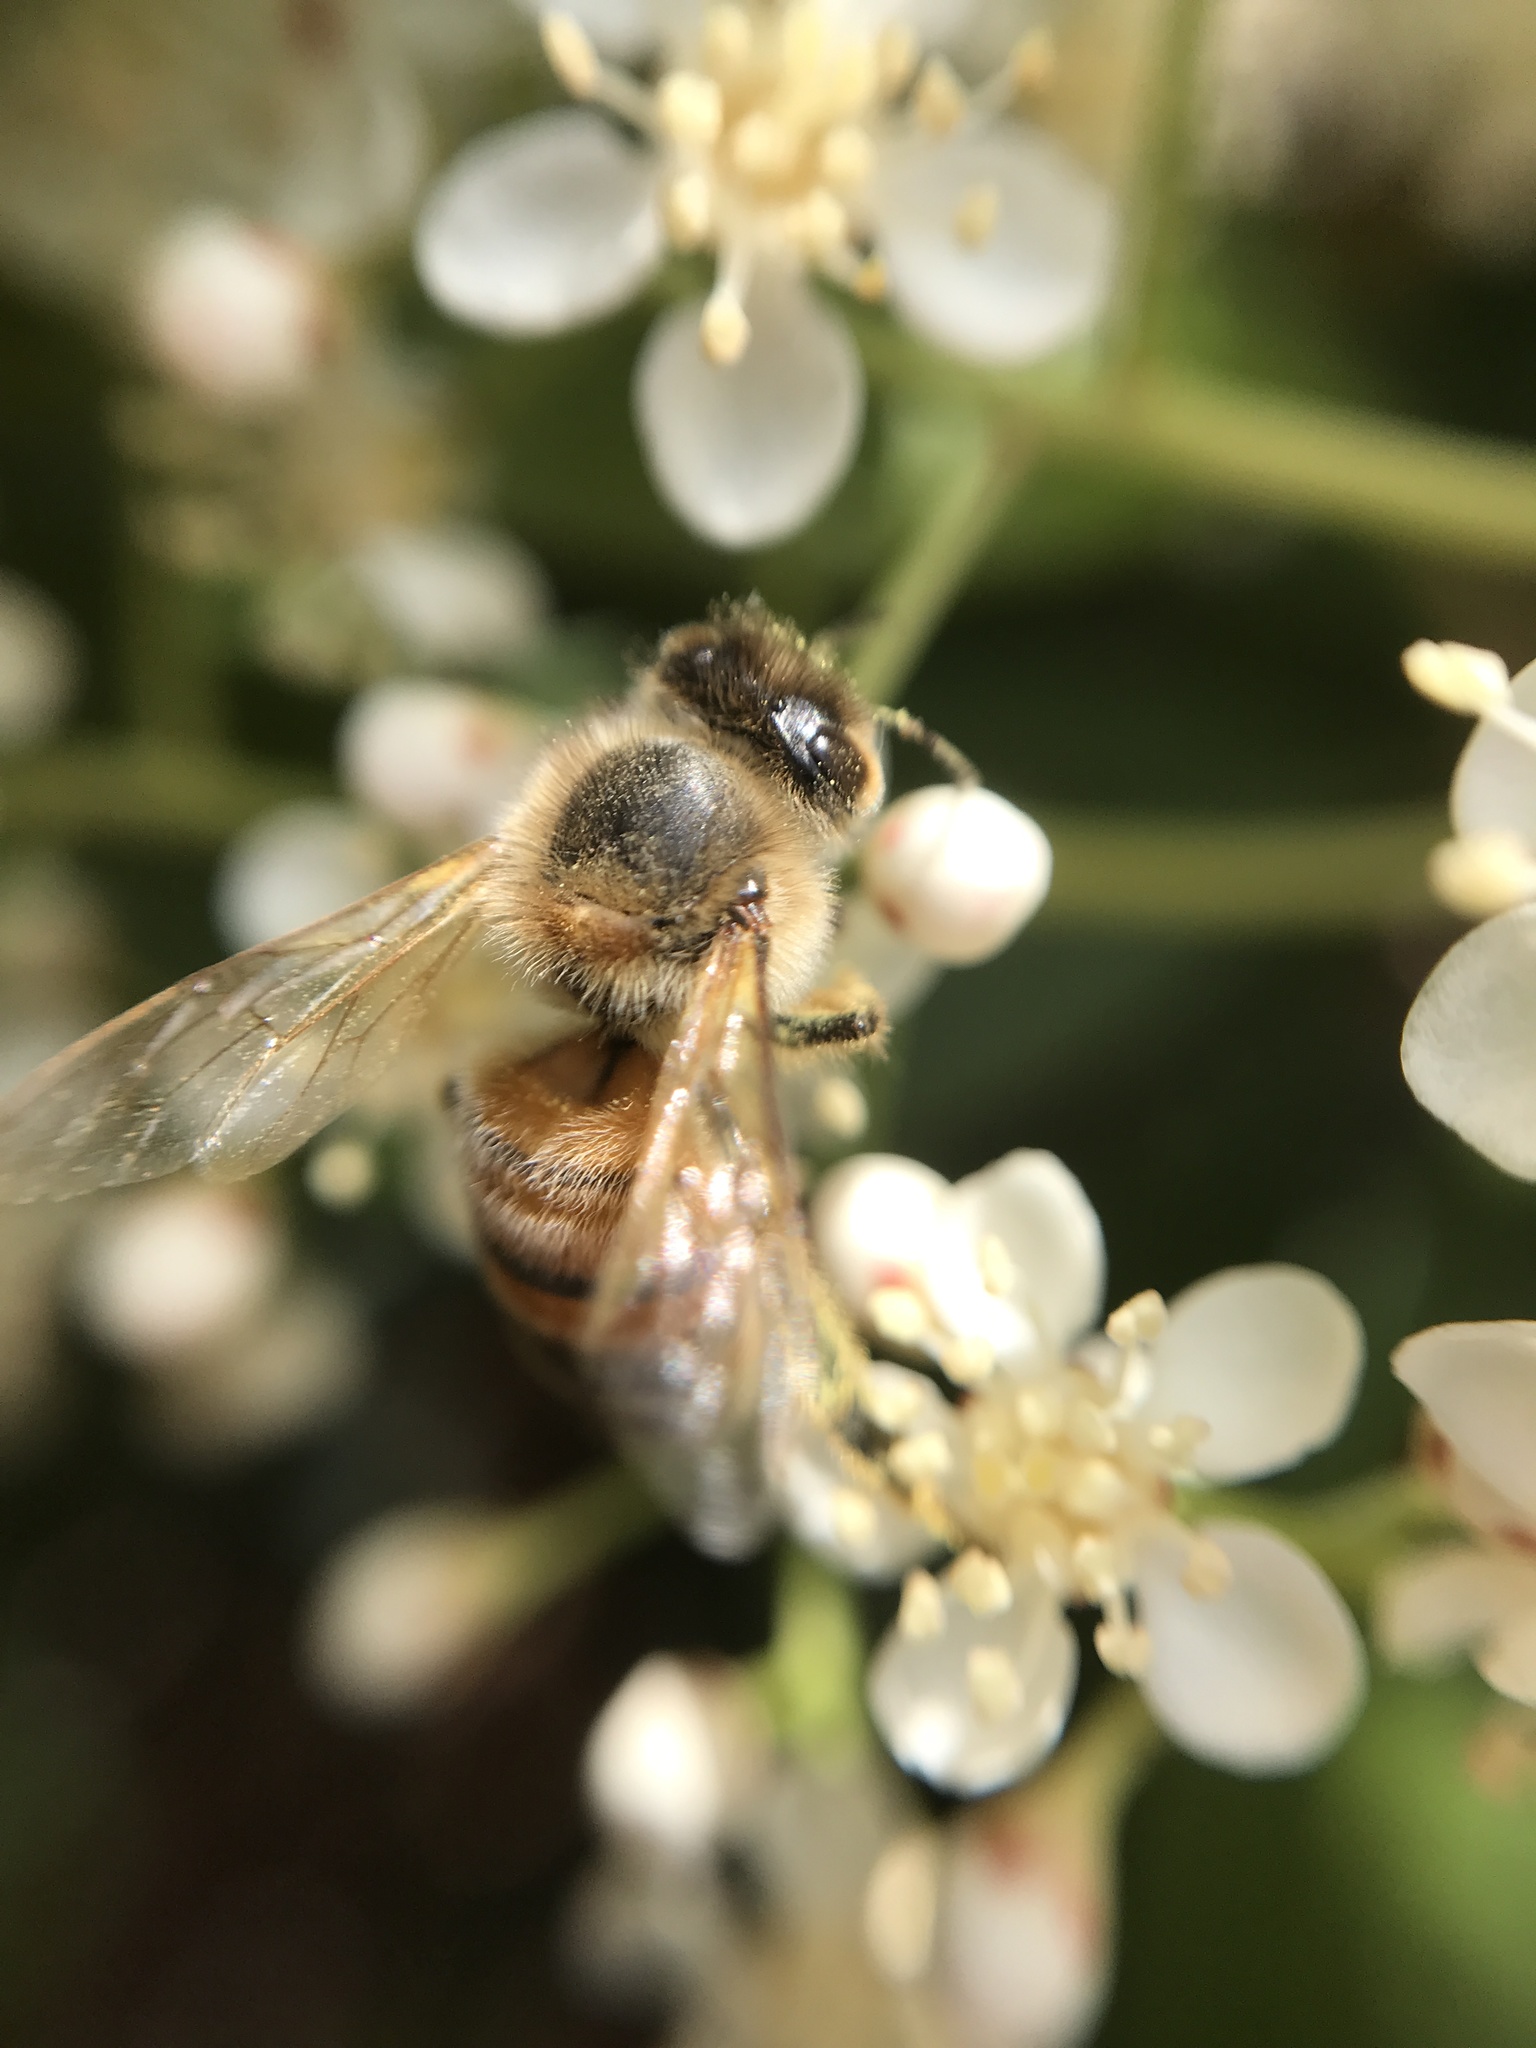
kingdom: Animalia
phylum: Arthropoda
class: Insecta
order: Hymenoptera
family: Apidae
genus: Apis
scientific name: Apis mellifera
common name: Honey bee
